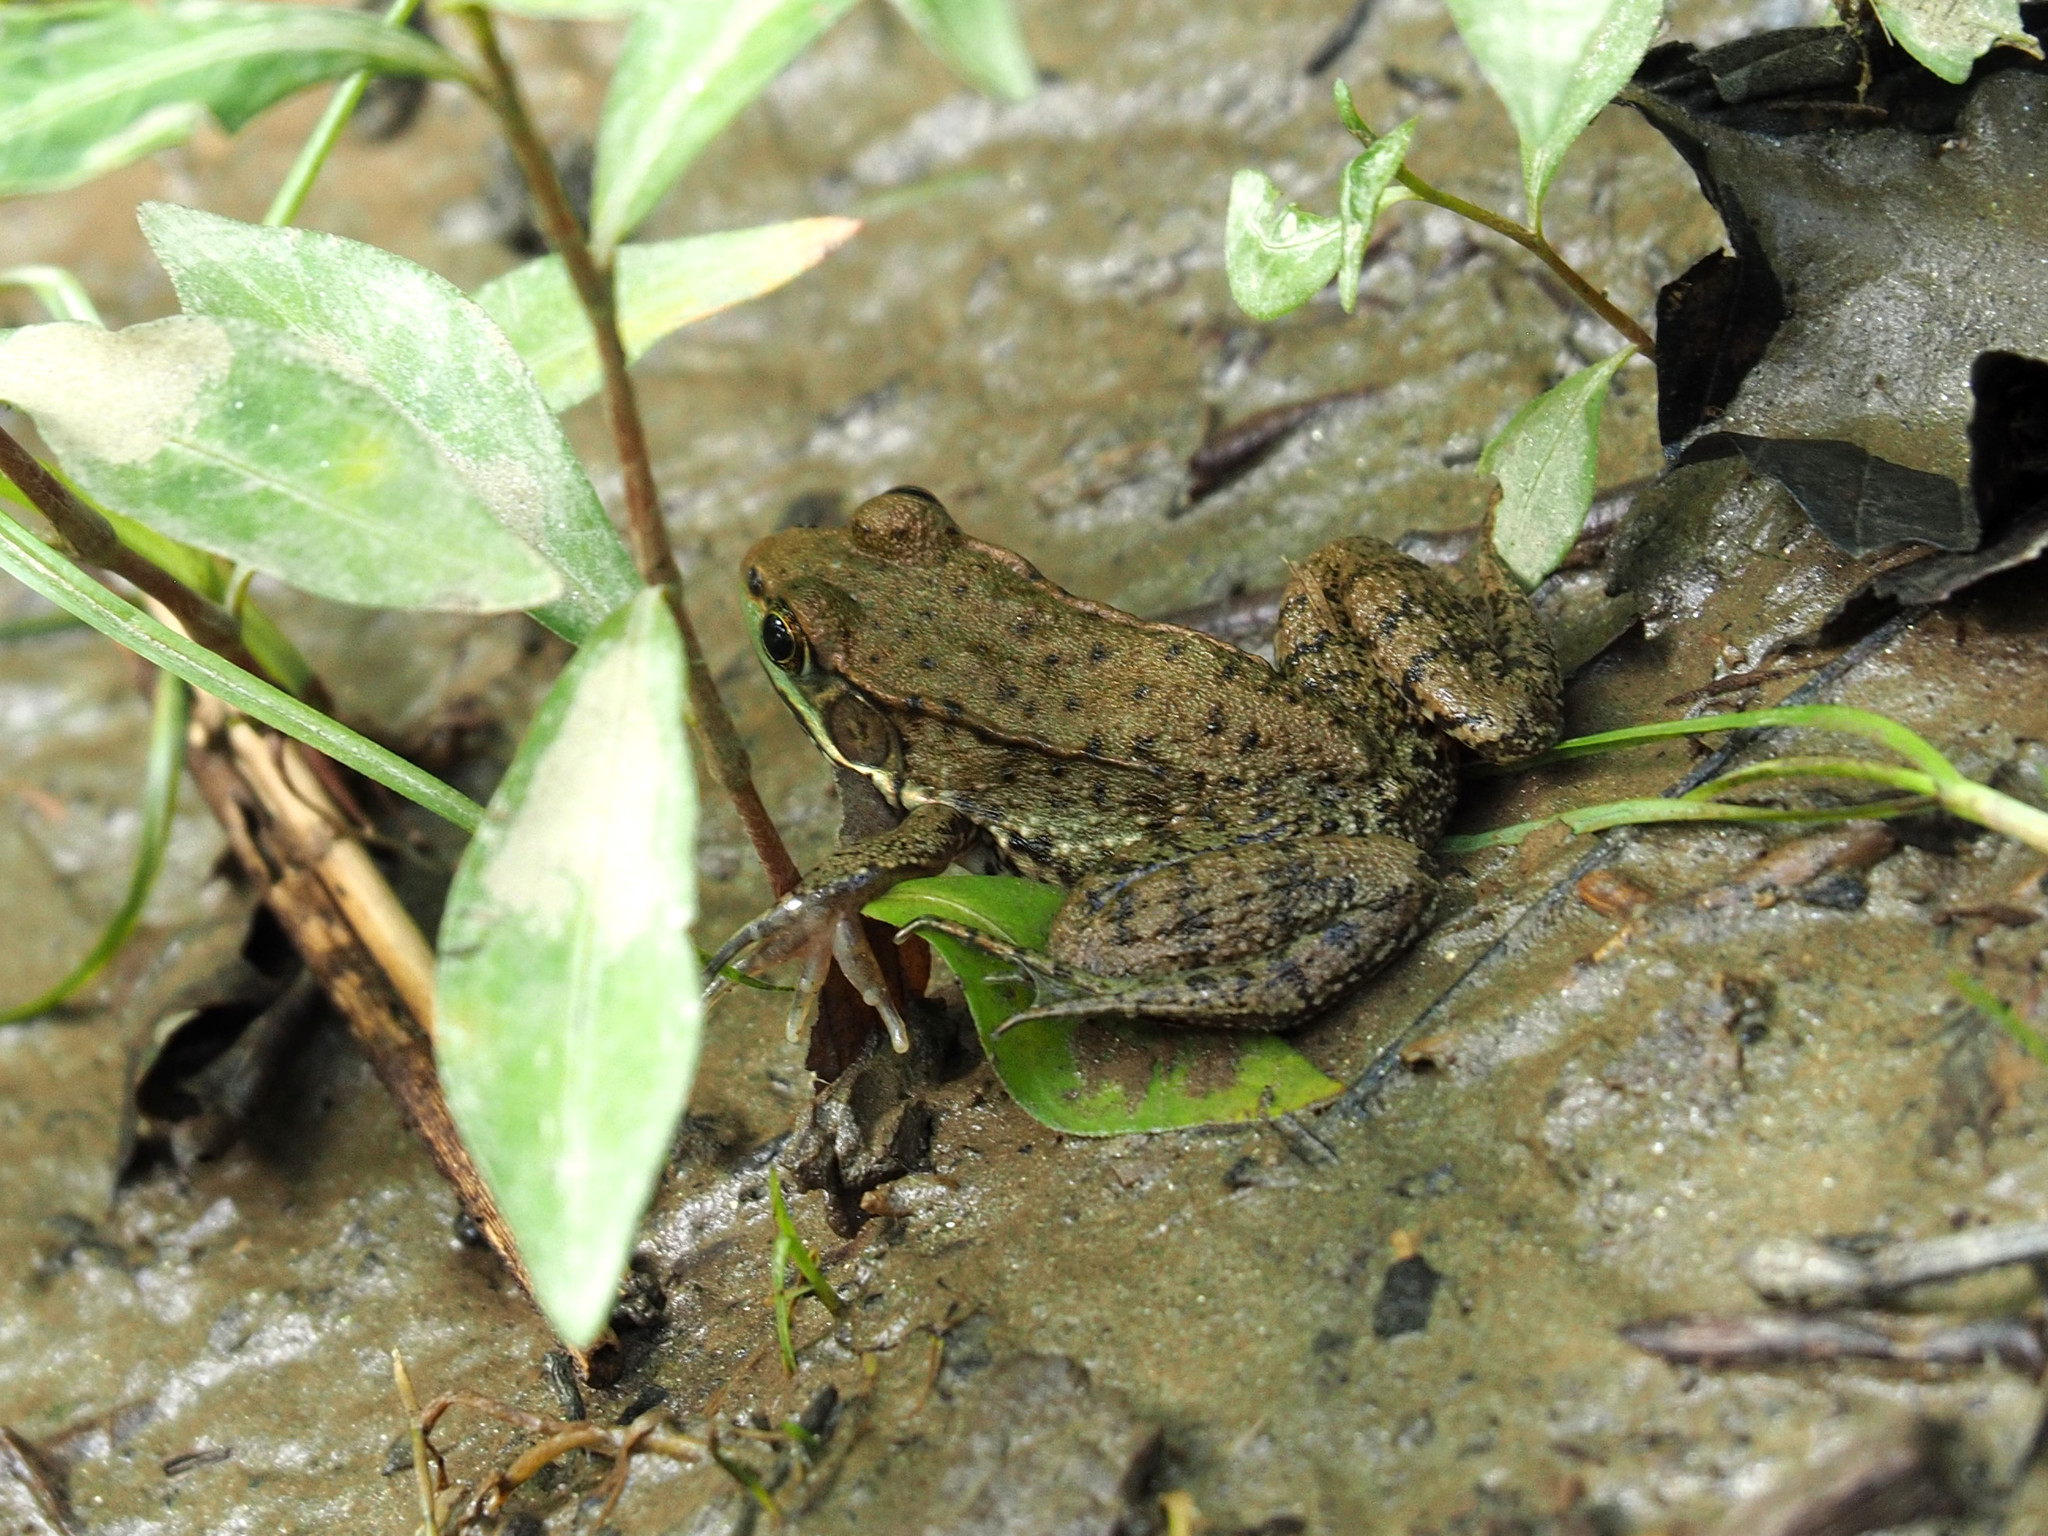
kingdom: Animalia
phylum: Chordata
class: Amphibia
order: Anura
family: Ranidae
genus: Lithobates
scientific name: Lithobates clamitans
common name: Green frog
